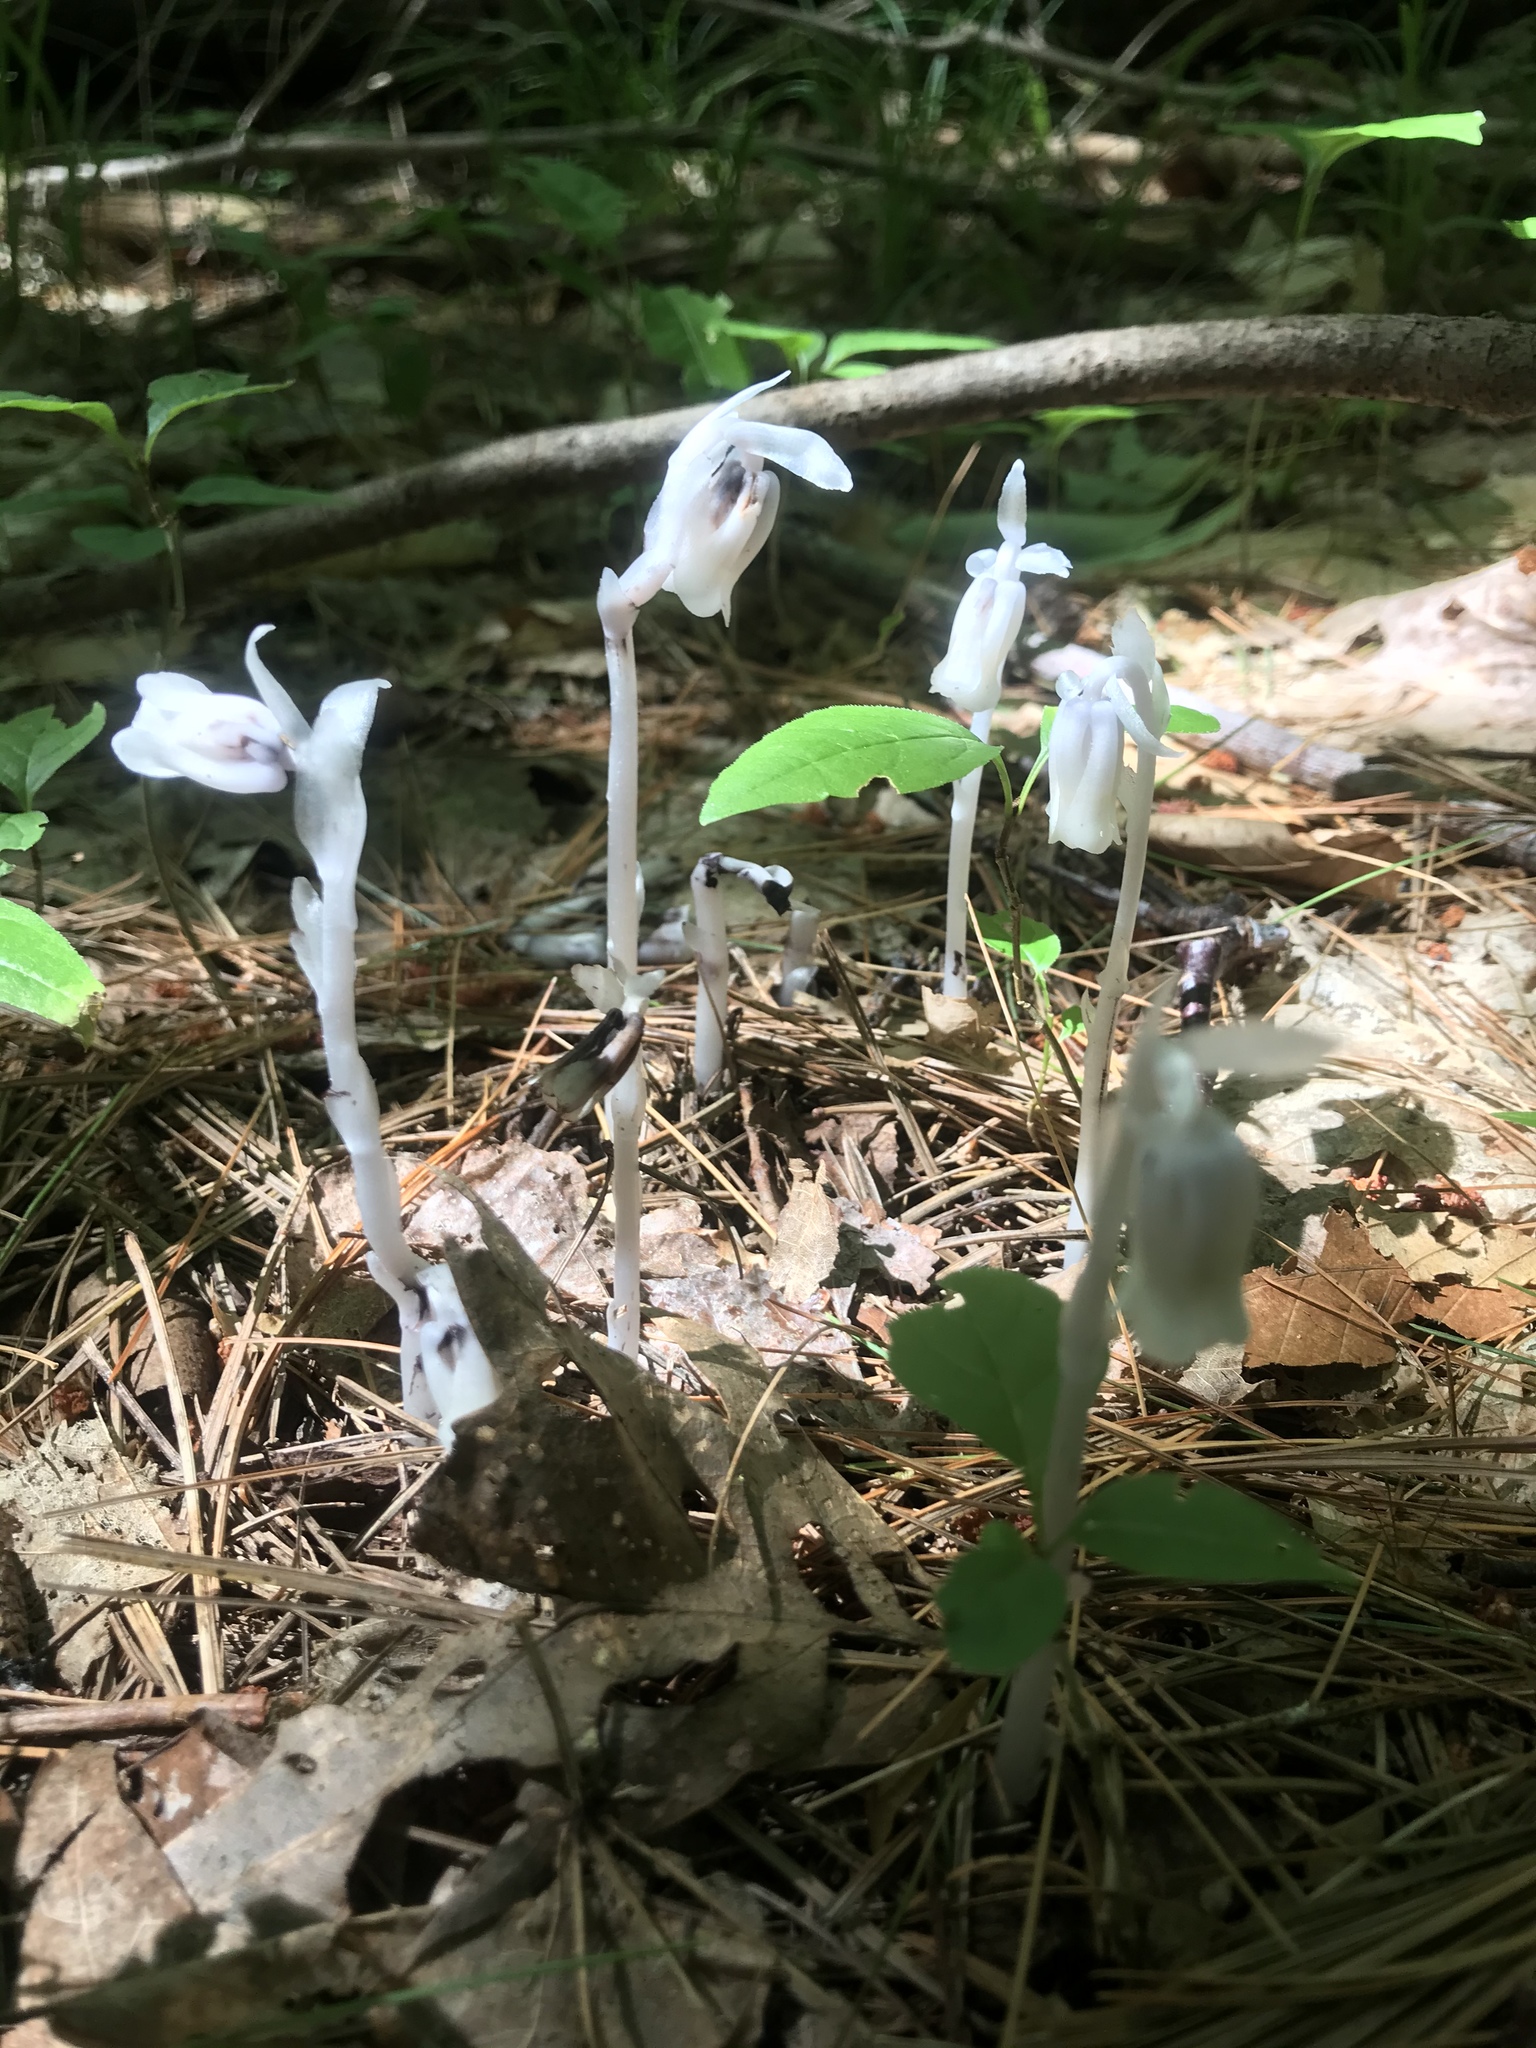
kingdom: Plantae
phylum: Tracheophyta
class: Magnoliopsida
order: Ericales
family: Ericaceae
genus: Monotropa
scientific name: Monotropa uniflora
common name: Convulsion root
